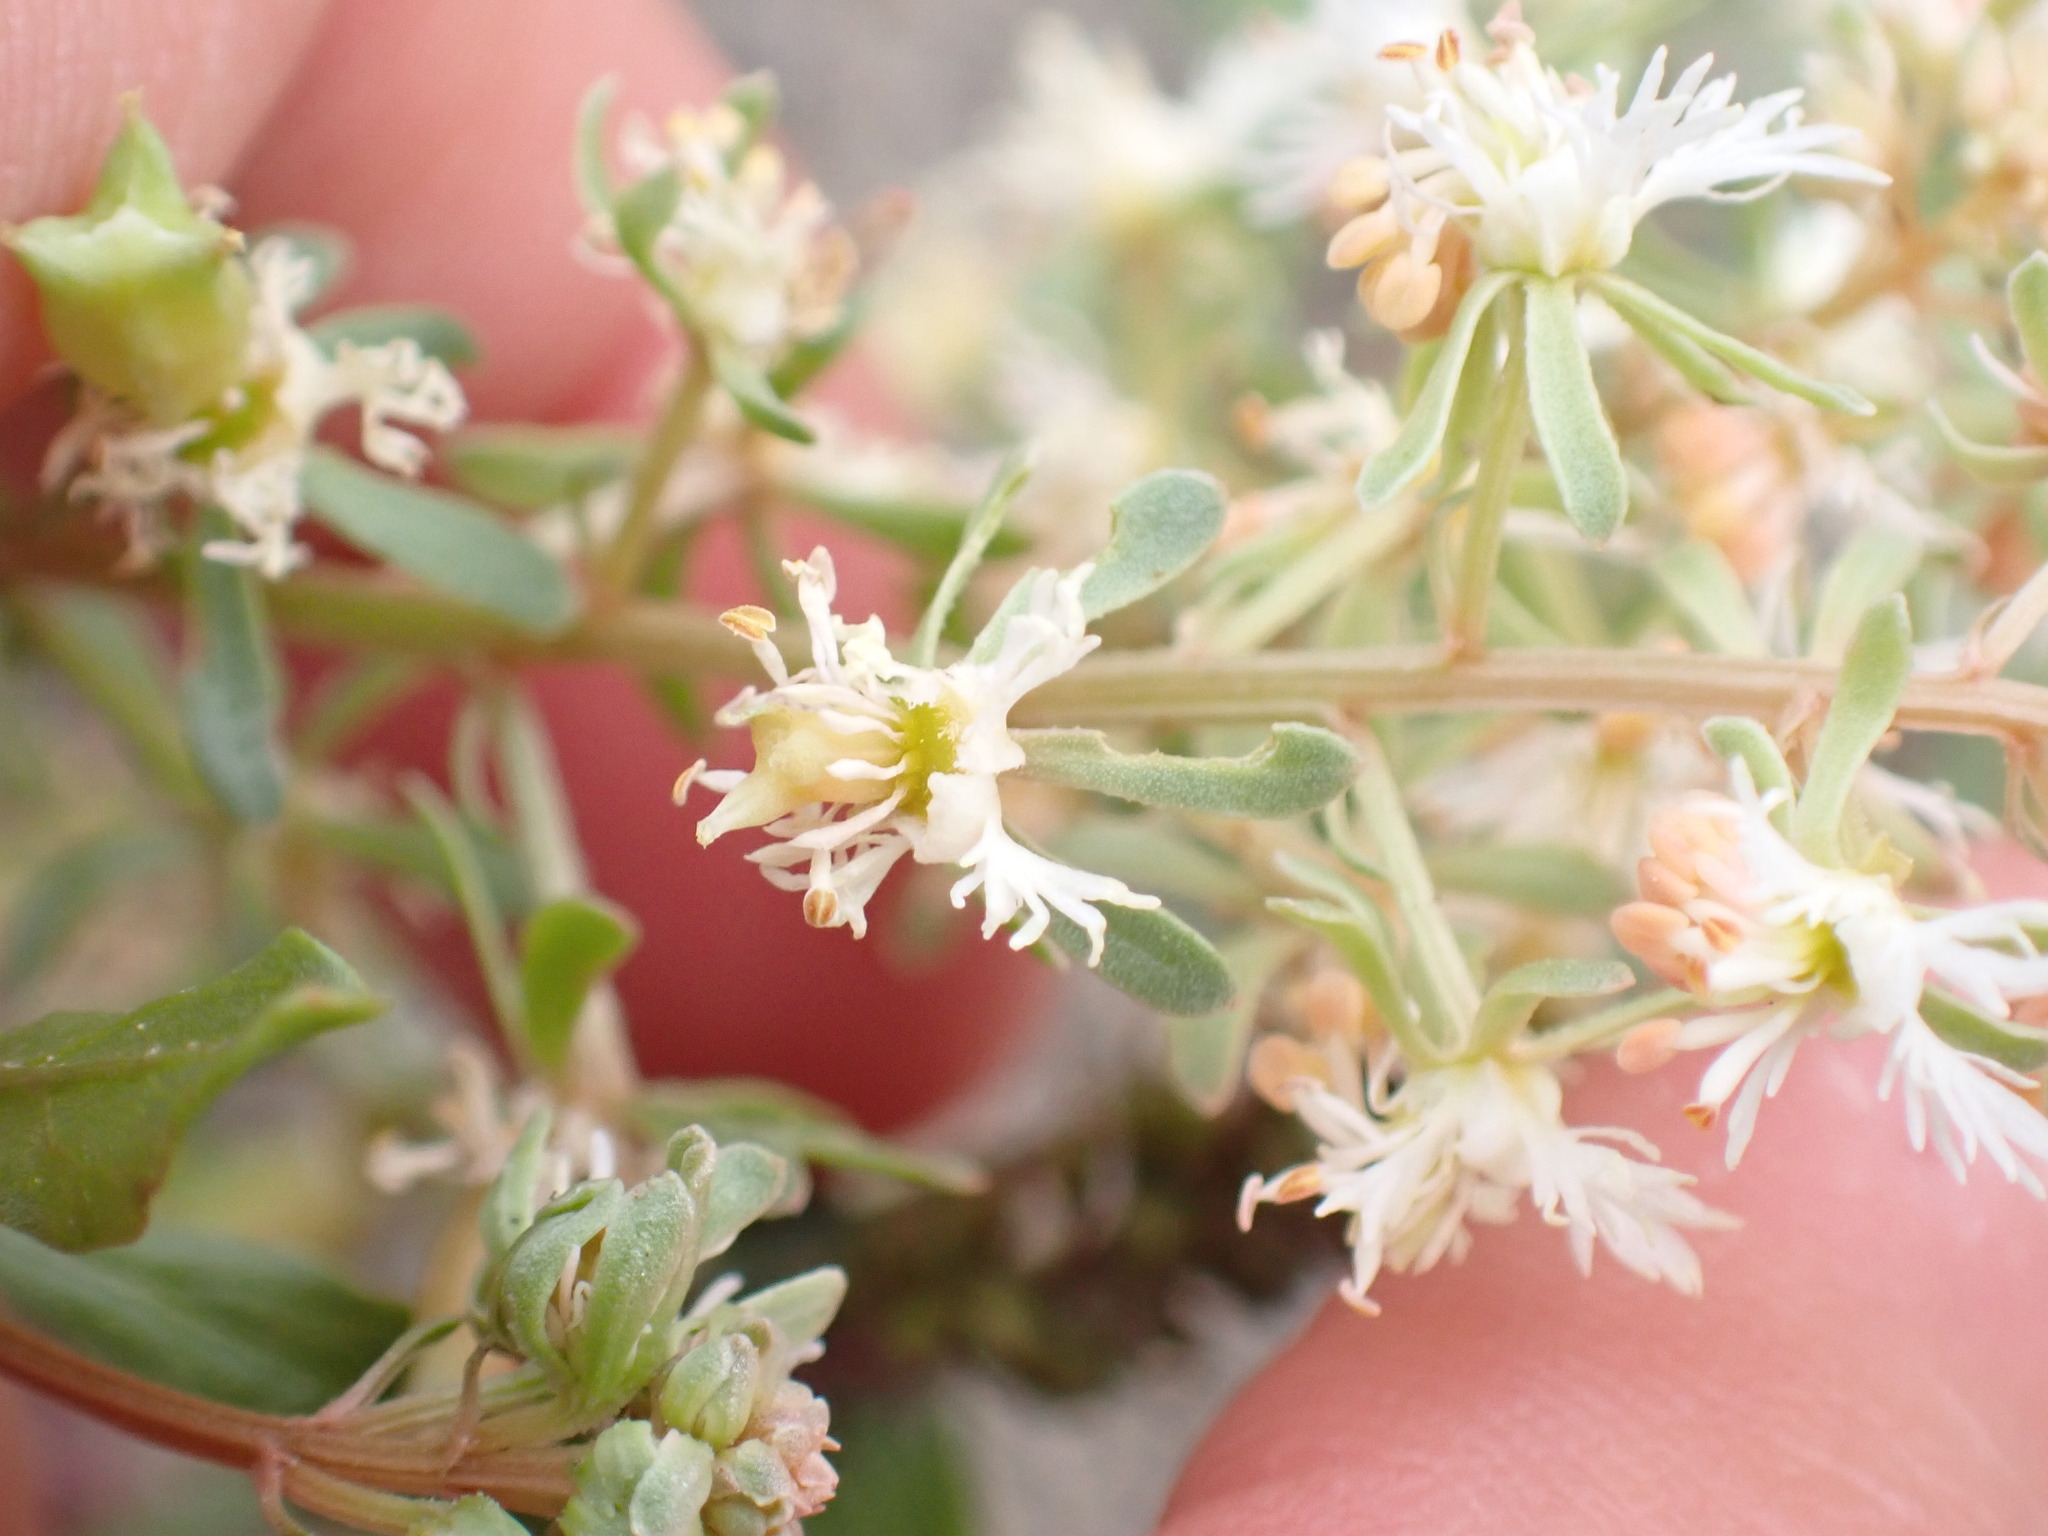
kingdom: Plantae
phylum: Tracheophyta
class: Magnoliopsida
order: Brassicales
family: Resedaceae
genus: Reseda
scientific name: Reseda phyteuma
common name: Corn mignonette
